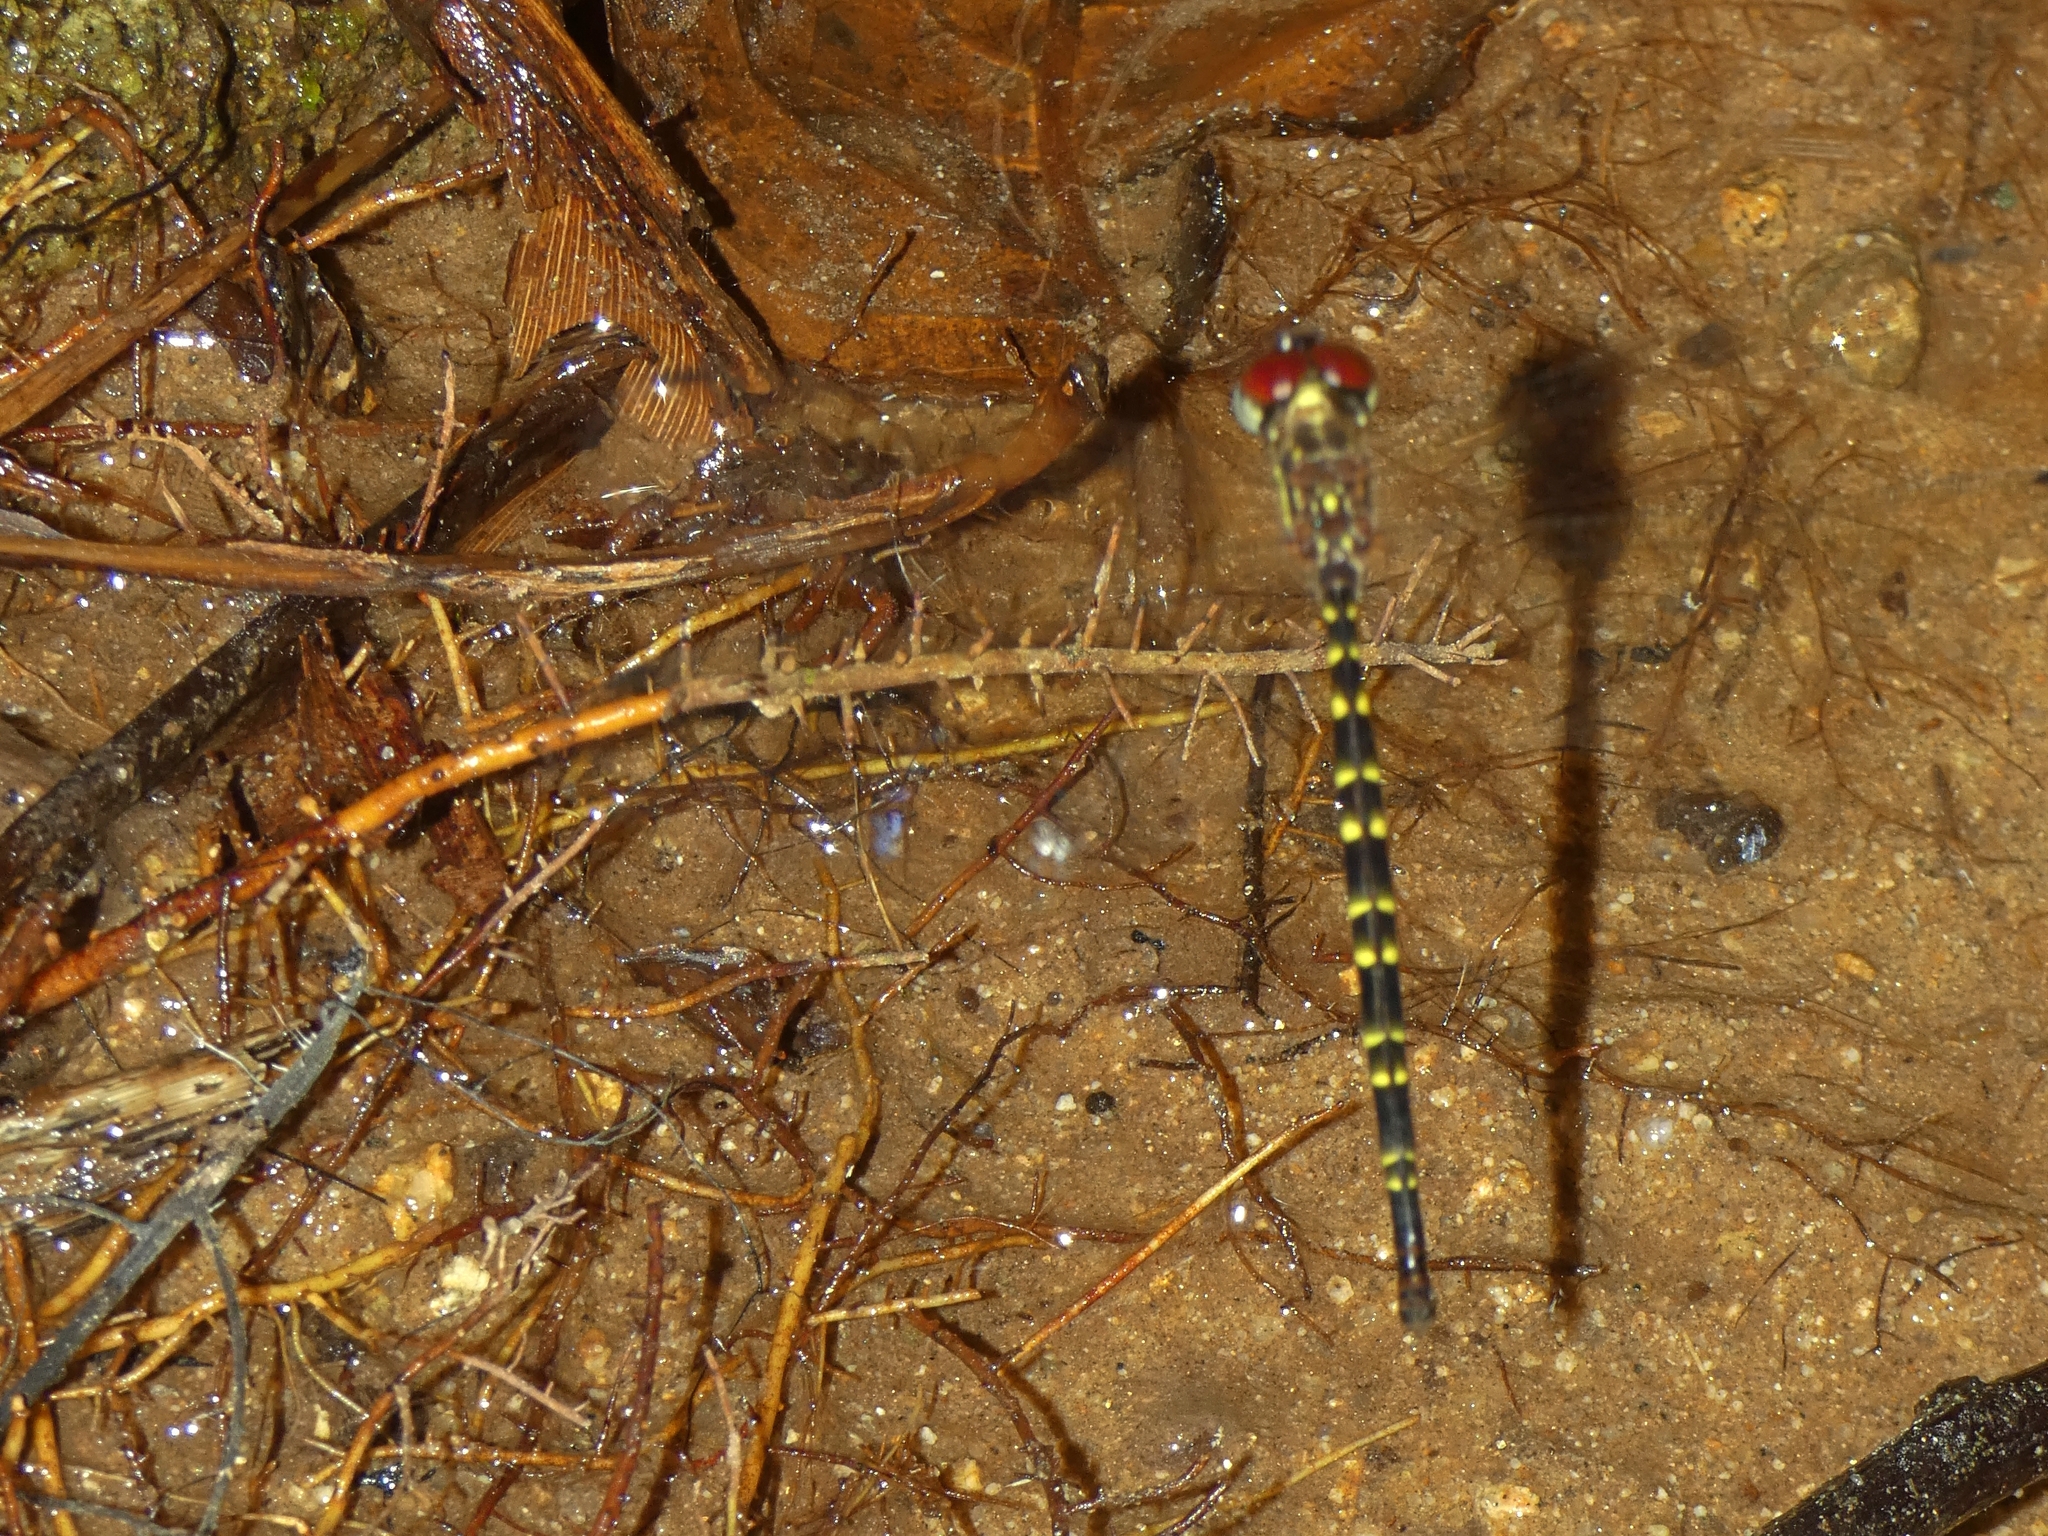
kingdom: Animalia
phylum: Arthropoda
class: Insecta
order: Odonata
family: Synthemistidae
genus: Choristhemis
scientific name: Choristhemis olivei
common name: Delicate tigertail
